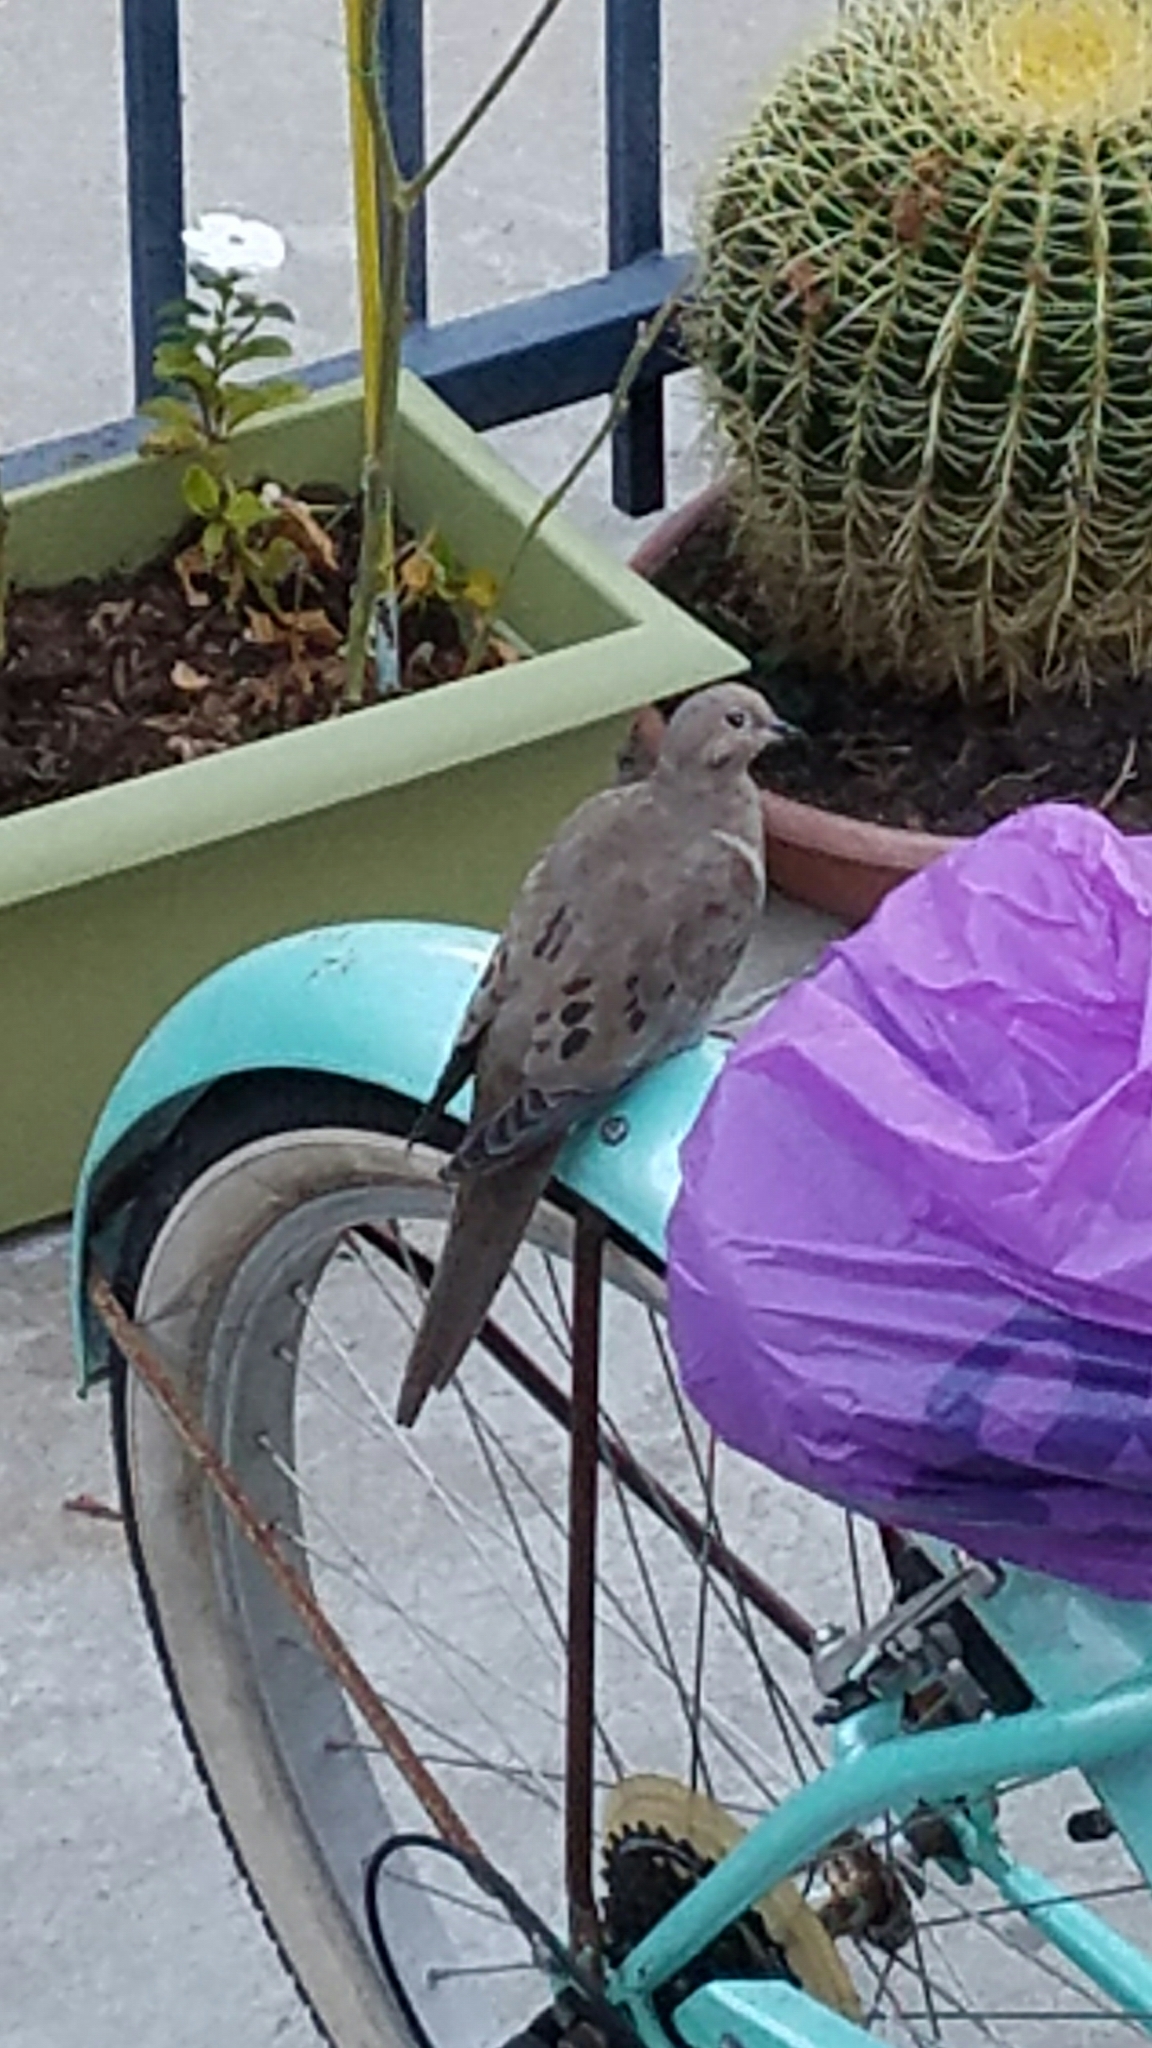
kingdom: Animalia
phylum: Chordata
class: Aves
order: Columbiformes
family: Columbidae
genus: Zenaida
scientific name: Zenaida macroura
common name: Mourning dove
